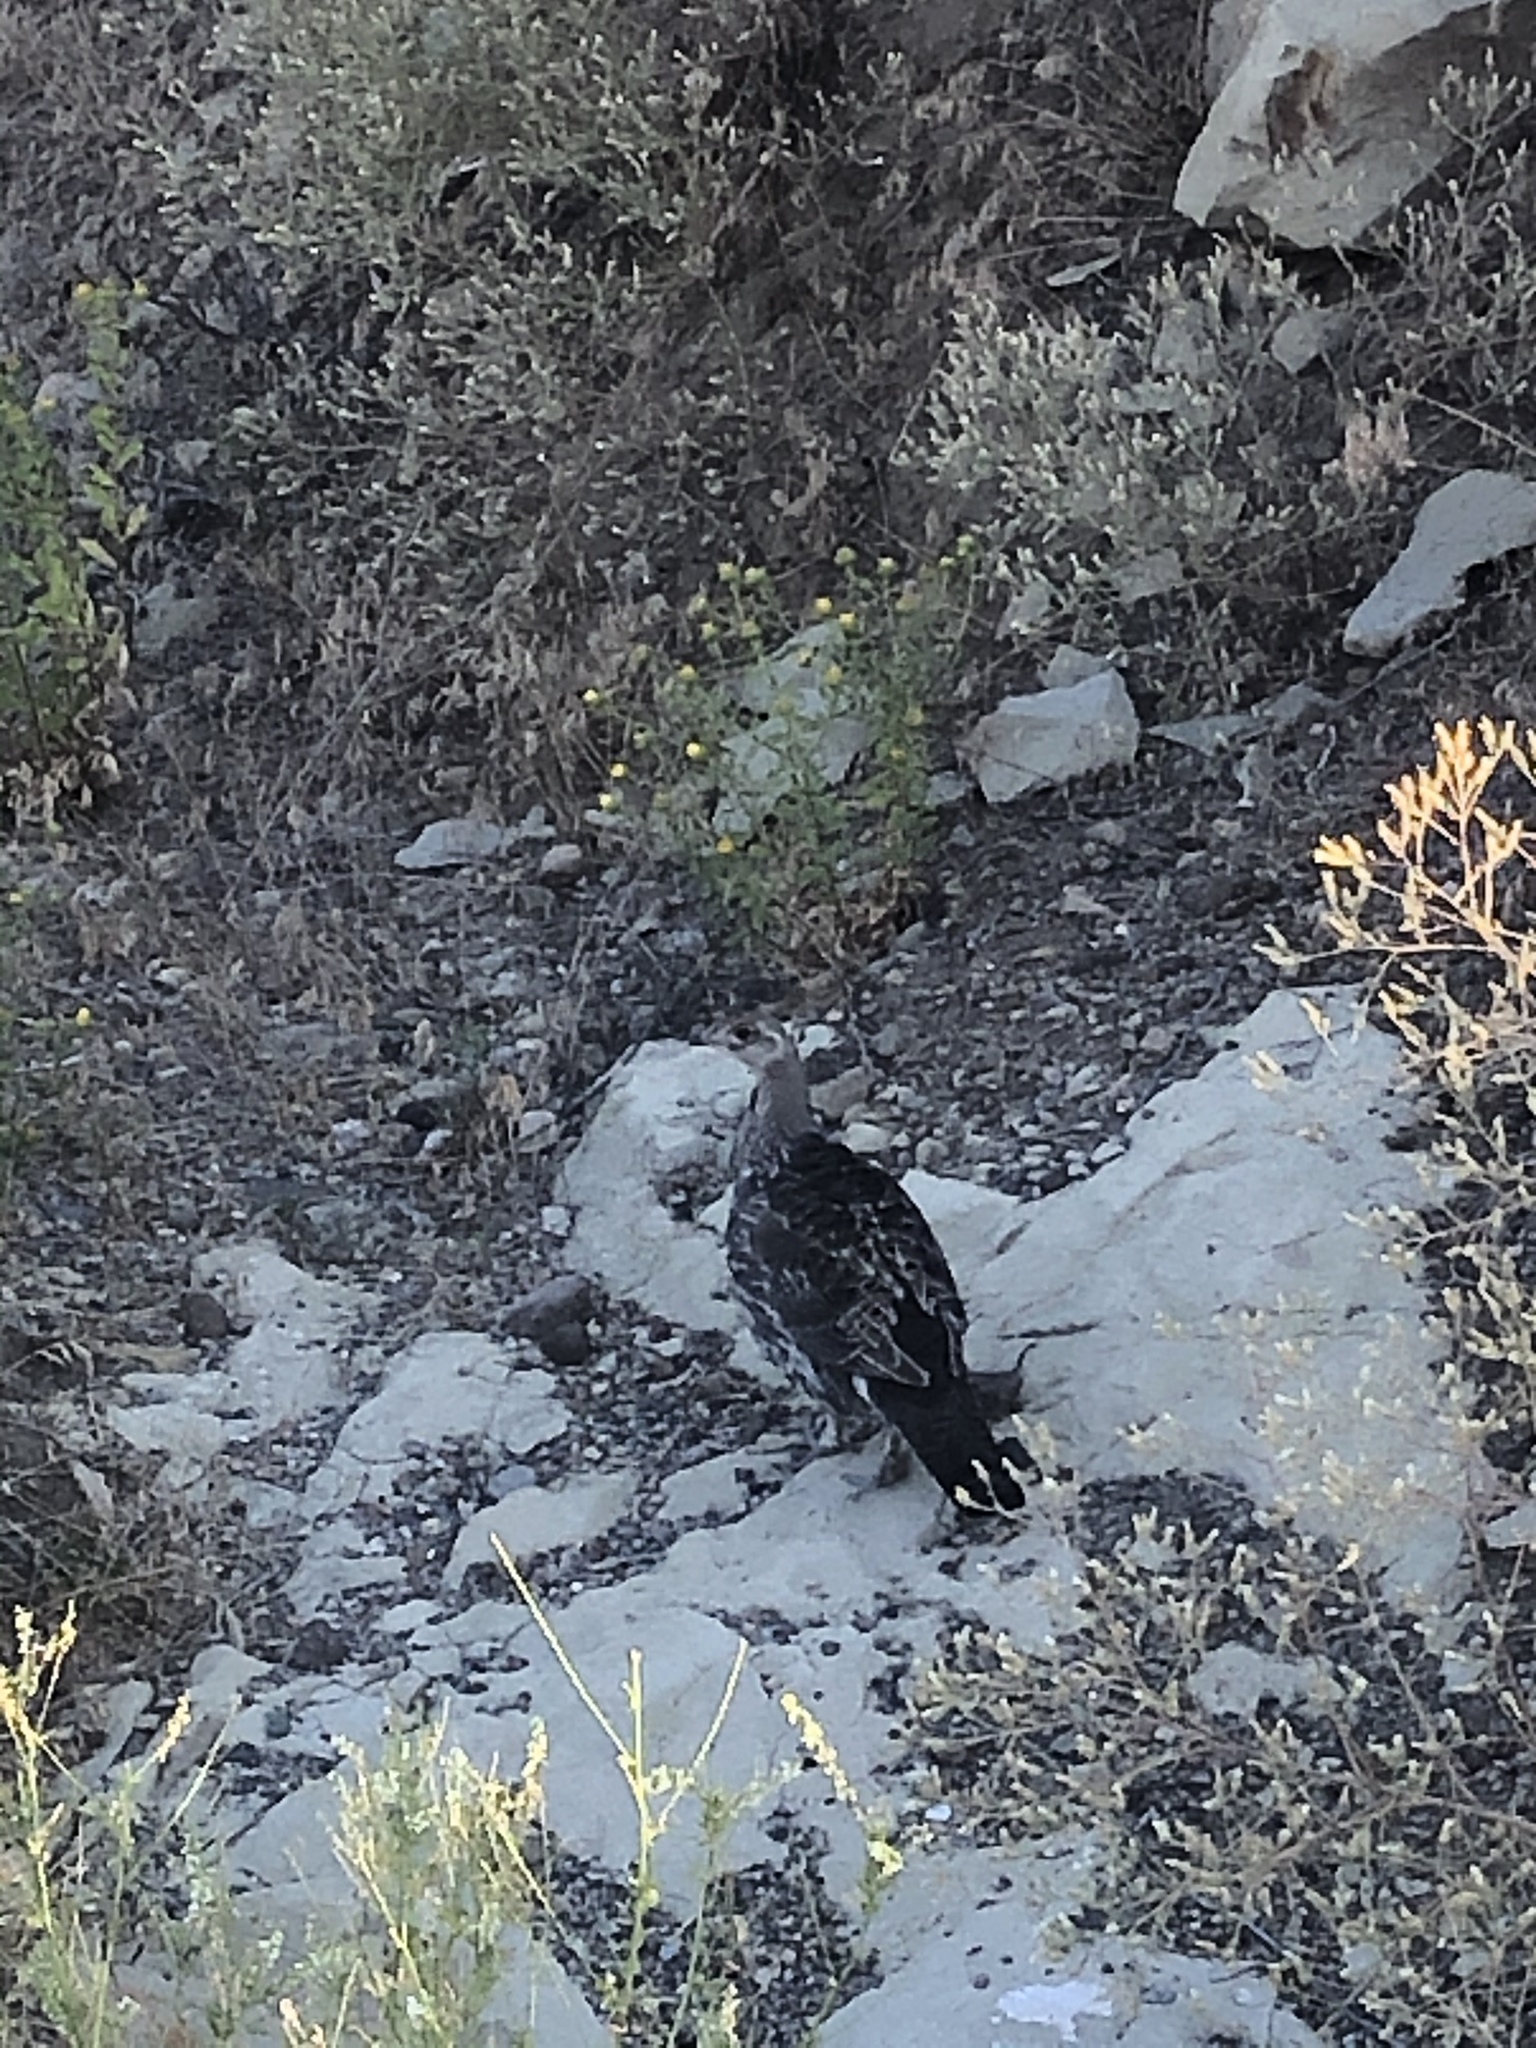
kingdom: Animalia
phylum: Chordata
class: Aves
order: Galliformes
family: Phasianidae
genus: Dendragapus
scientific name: Dendragapus obscurus
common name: Dusky grouse
